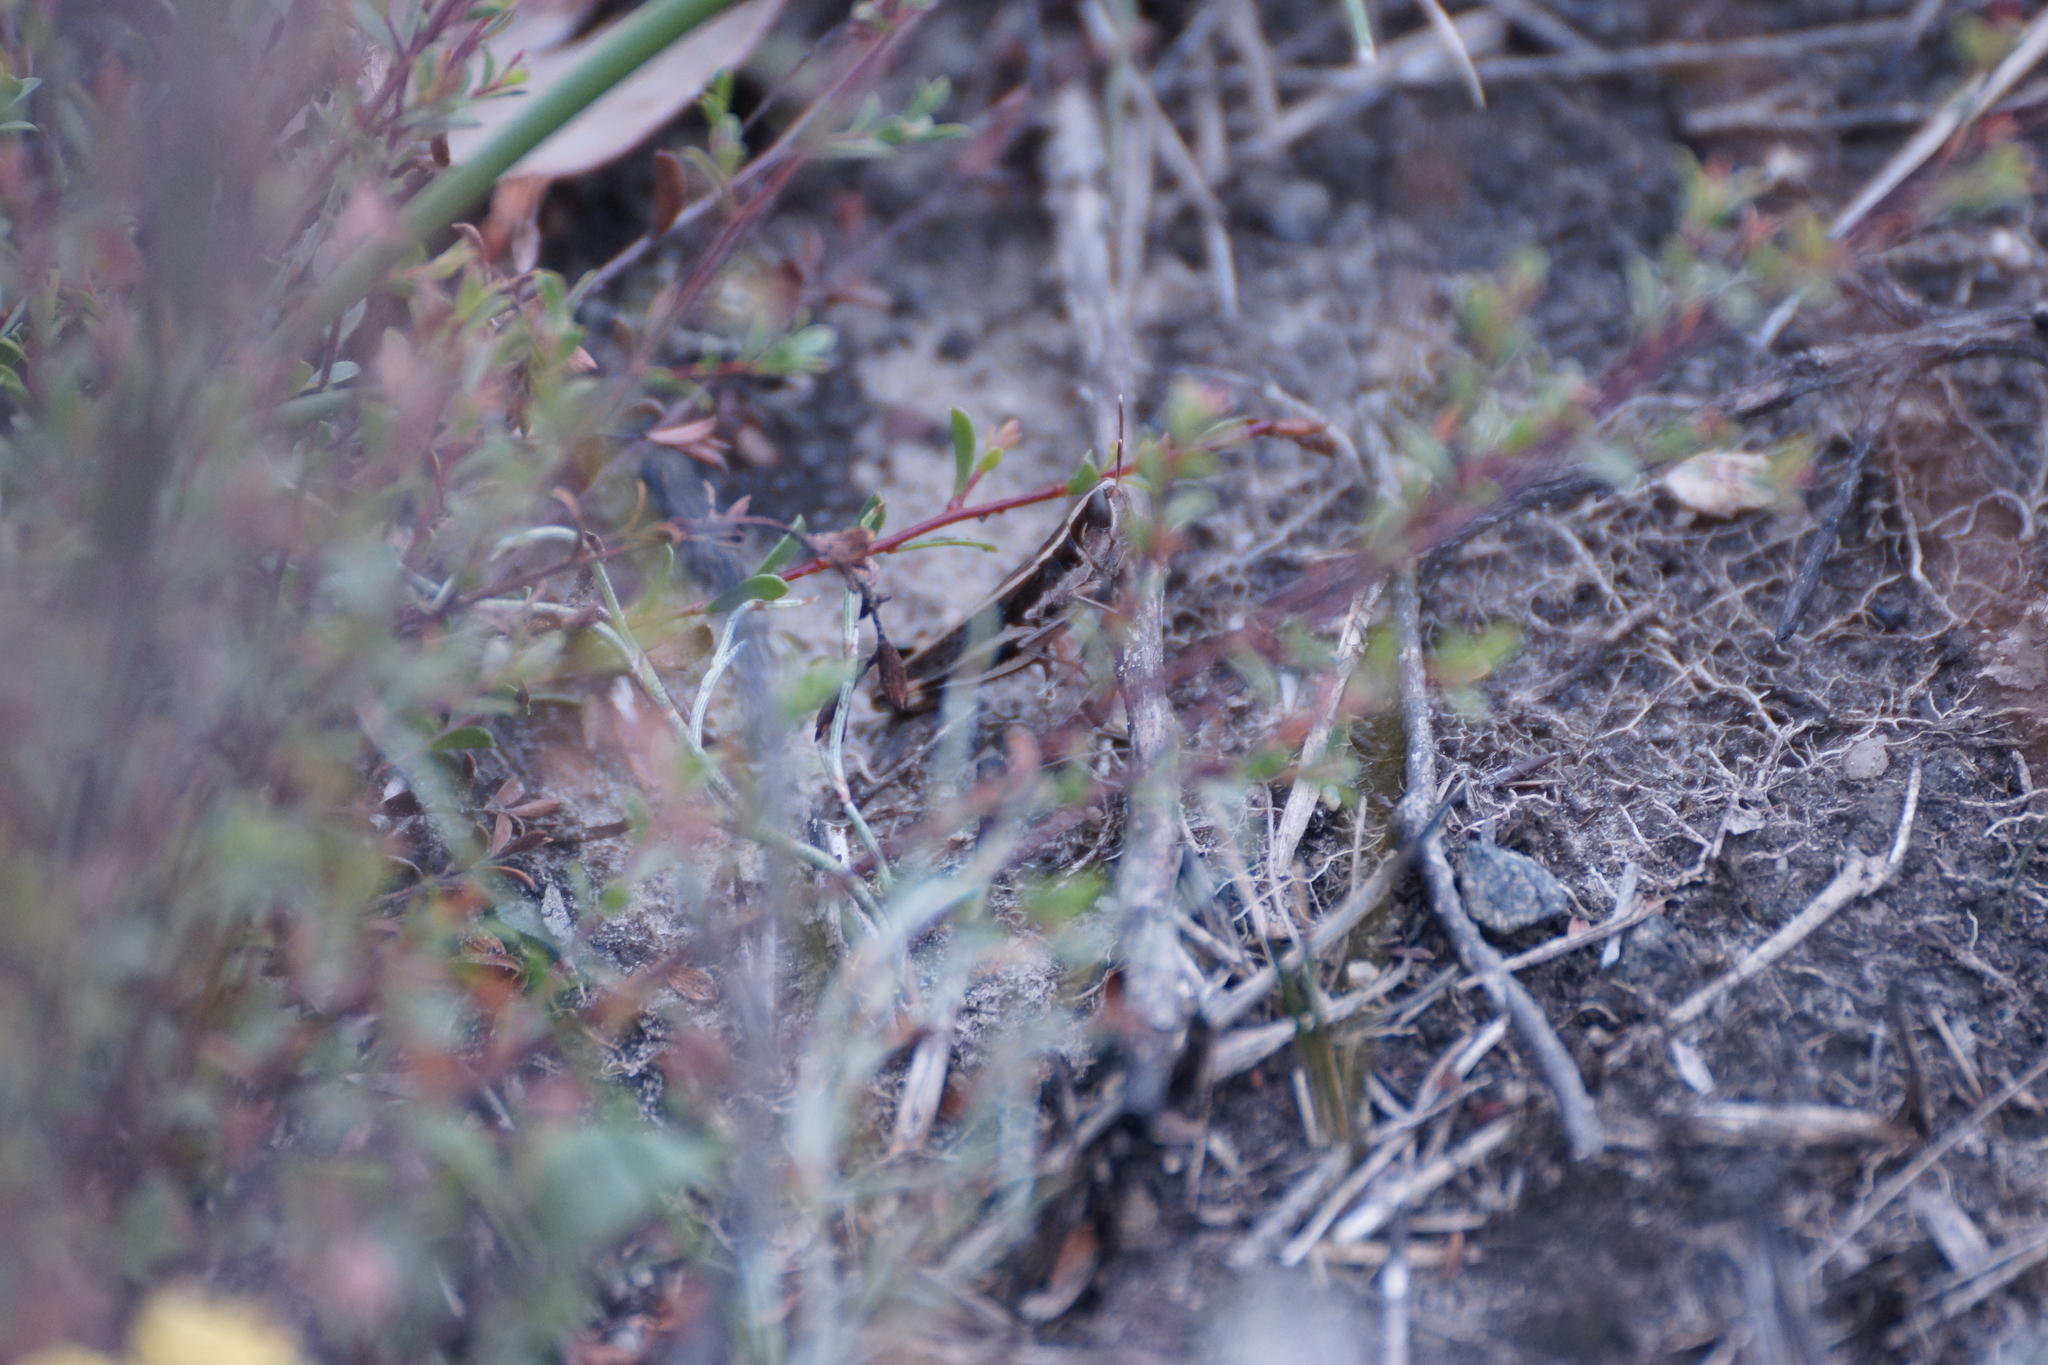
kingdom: Animalia
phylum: Arthropoda
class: Insecta
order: Orthoptera
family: Acrididae
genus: Macrotona
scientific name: Macrotona australis
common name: Common macrotona
